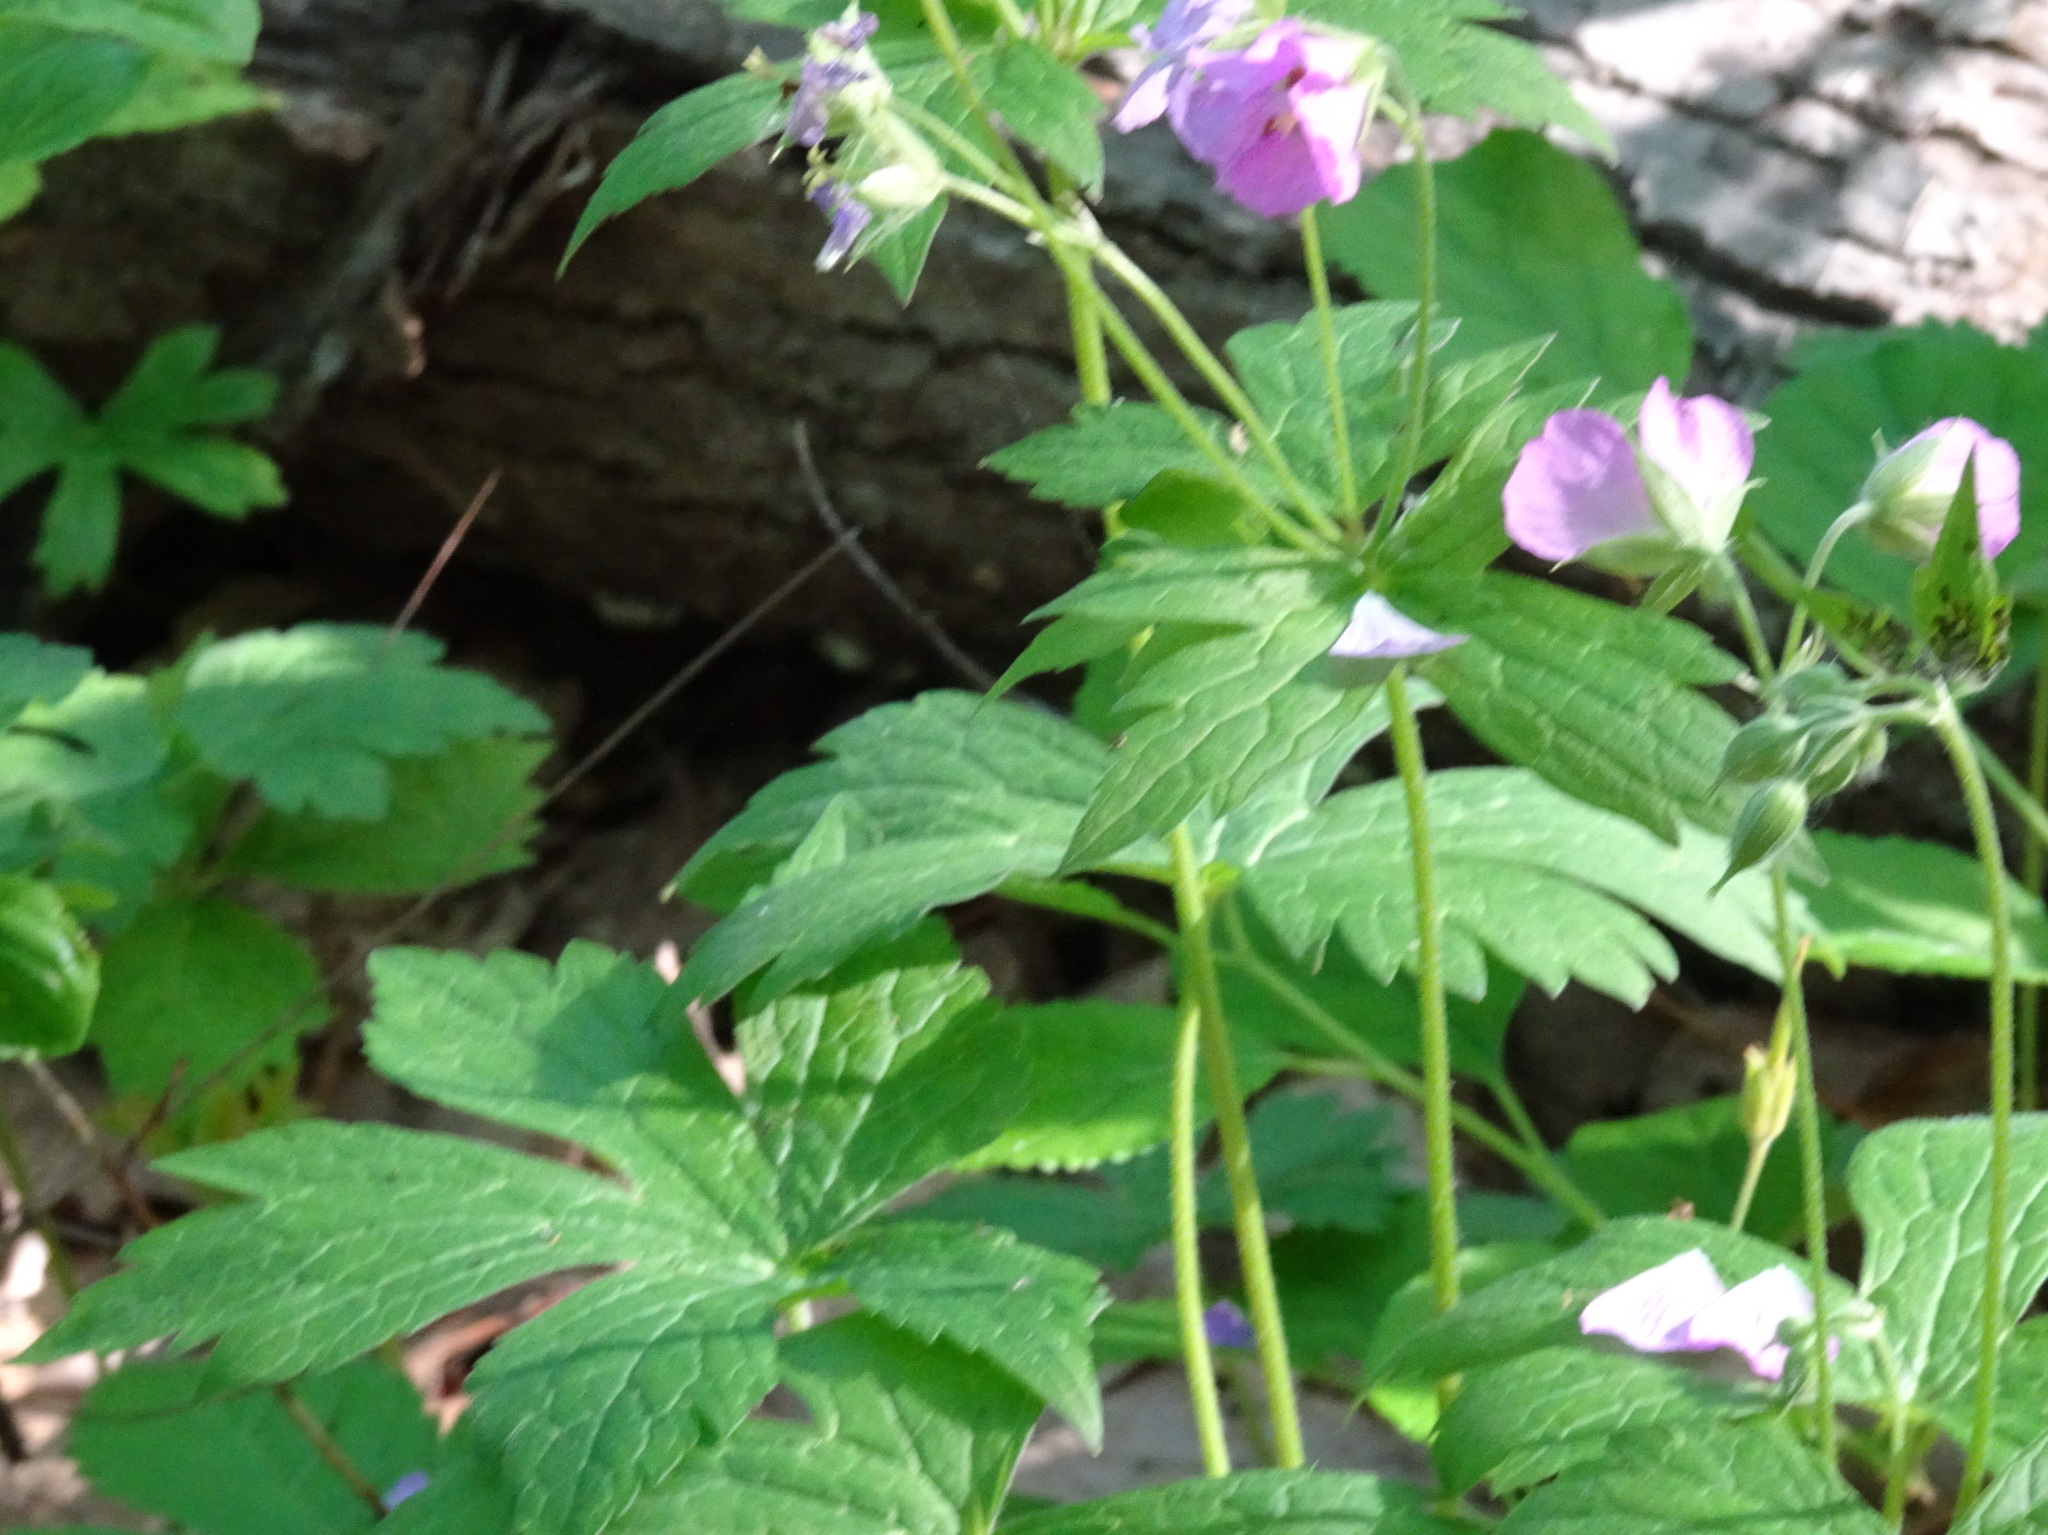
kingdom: Plantae
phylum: Tracheophyta
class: Magnoliopsida
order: Geraniales
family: Geraniaceae
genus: Geranium
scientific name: Geranium maculatum
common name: Spotted geranium
